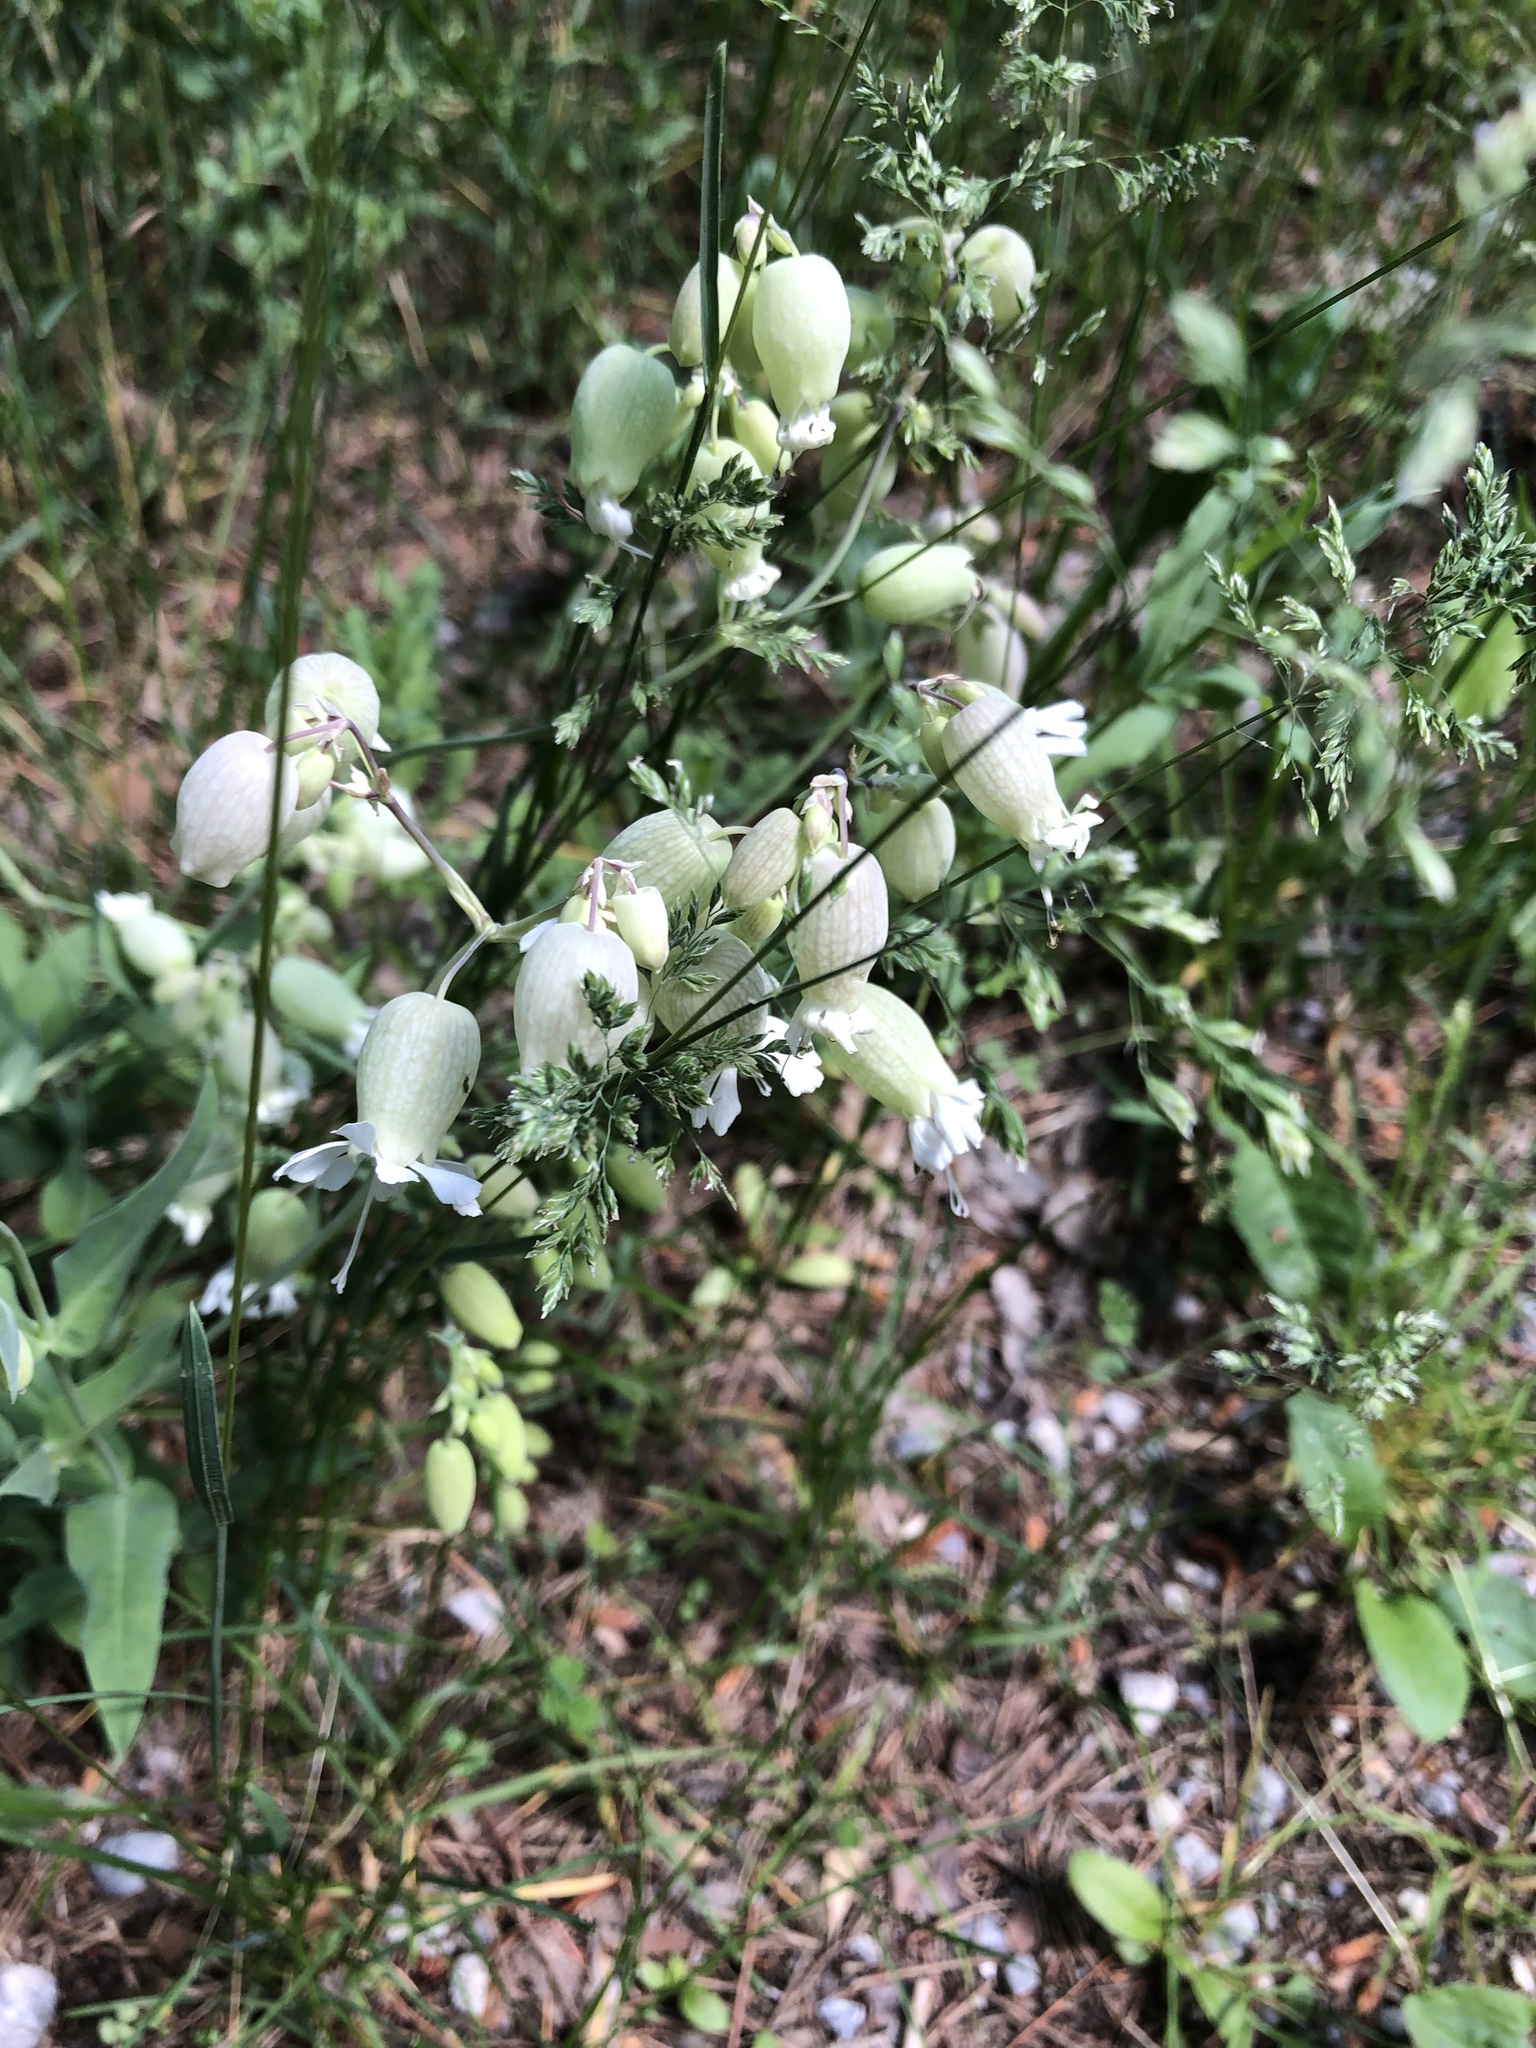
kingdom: Plantae
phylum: Tracheophyta
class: Magnoliopsida
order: Caryophyllales
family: Caryophyllaceae
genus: Silene
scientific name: Silene vulgaris
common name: Bladder campion
